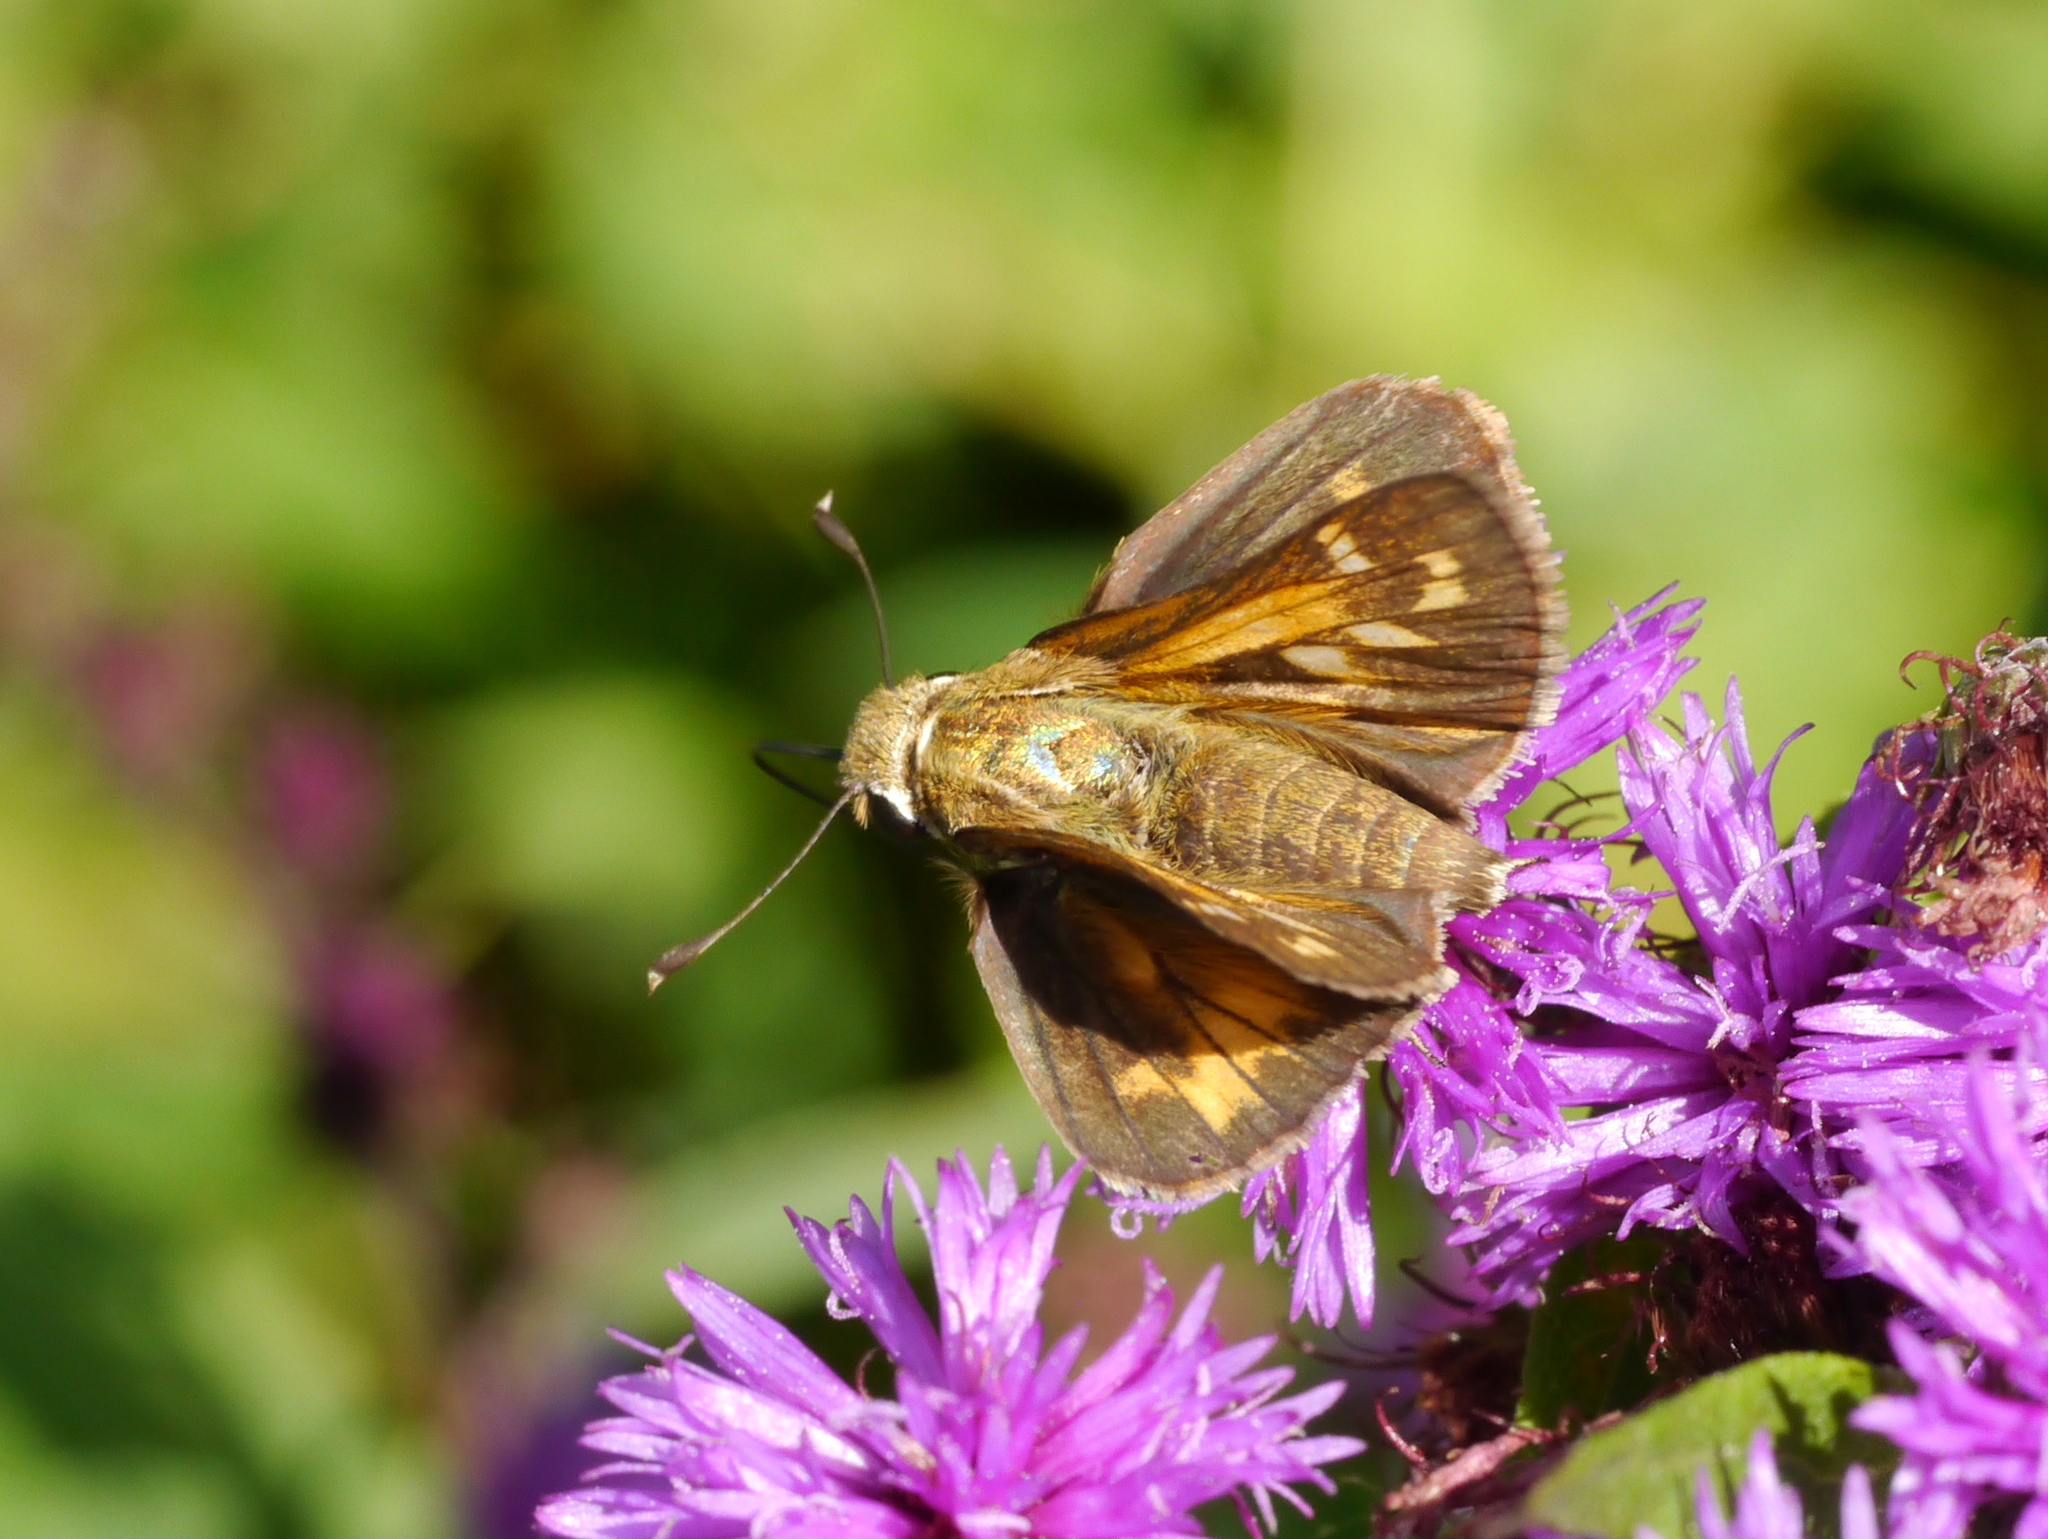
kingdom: Animalia
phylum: Arthropoda
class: Insecta
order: Lepidoptera
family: Hesperiidae
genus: Atalopedes
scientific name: Atalopedes
